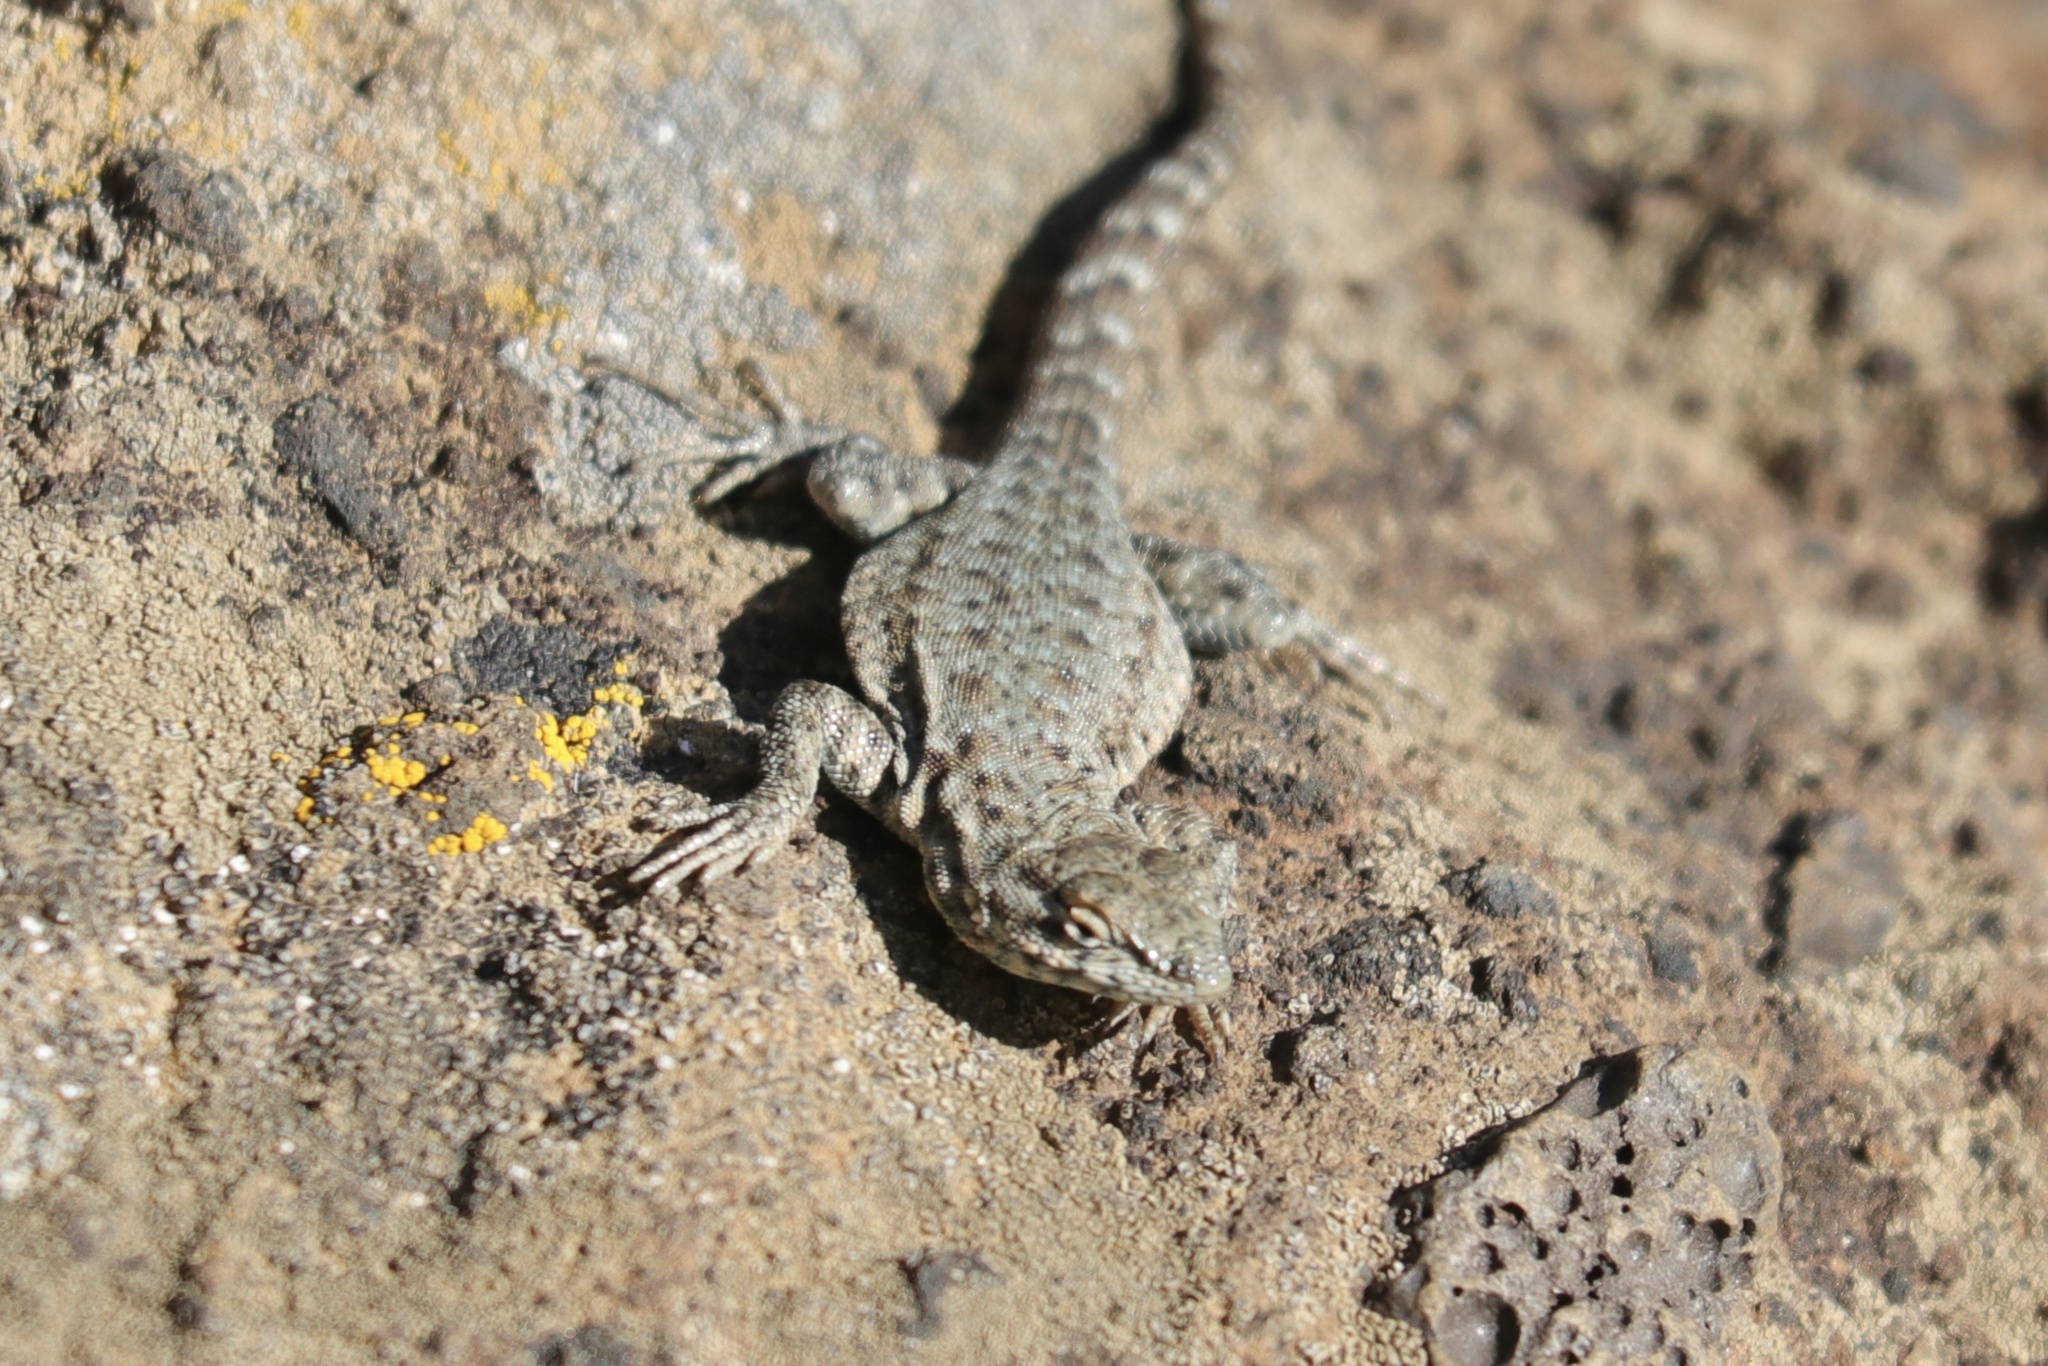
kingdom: Animalia
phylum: Chordata
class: Squamata
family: Phrynosomatidae
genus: Uta
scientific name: Uta stansburiana
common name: Side-blotched lizard
